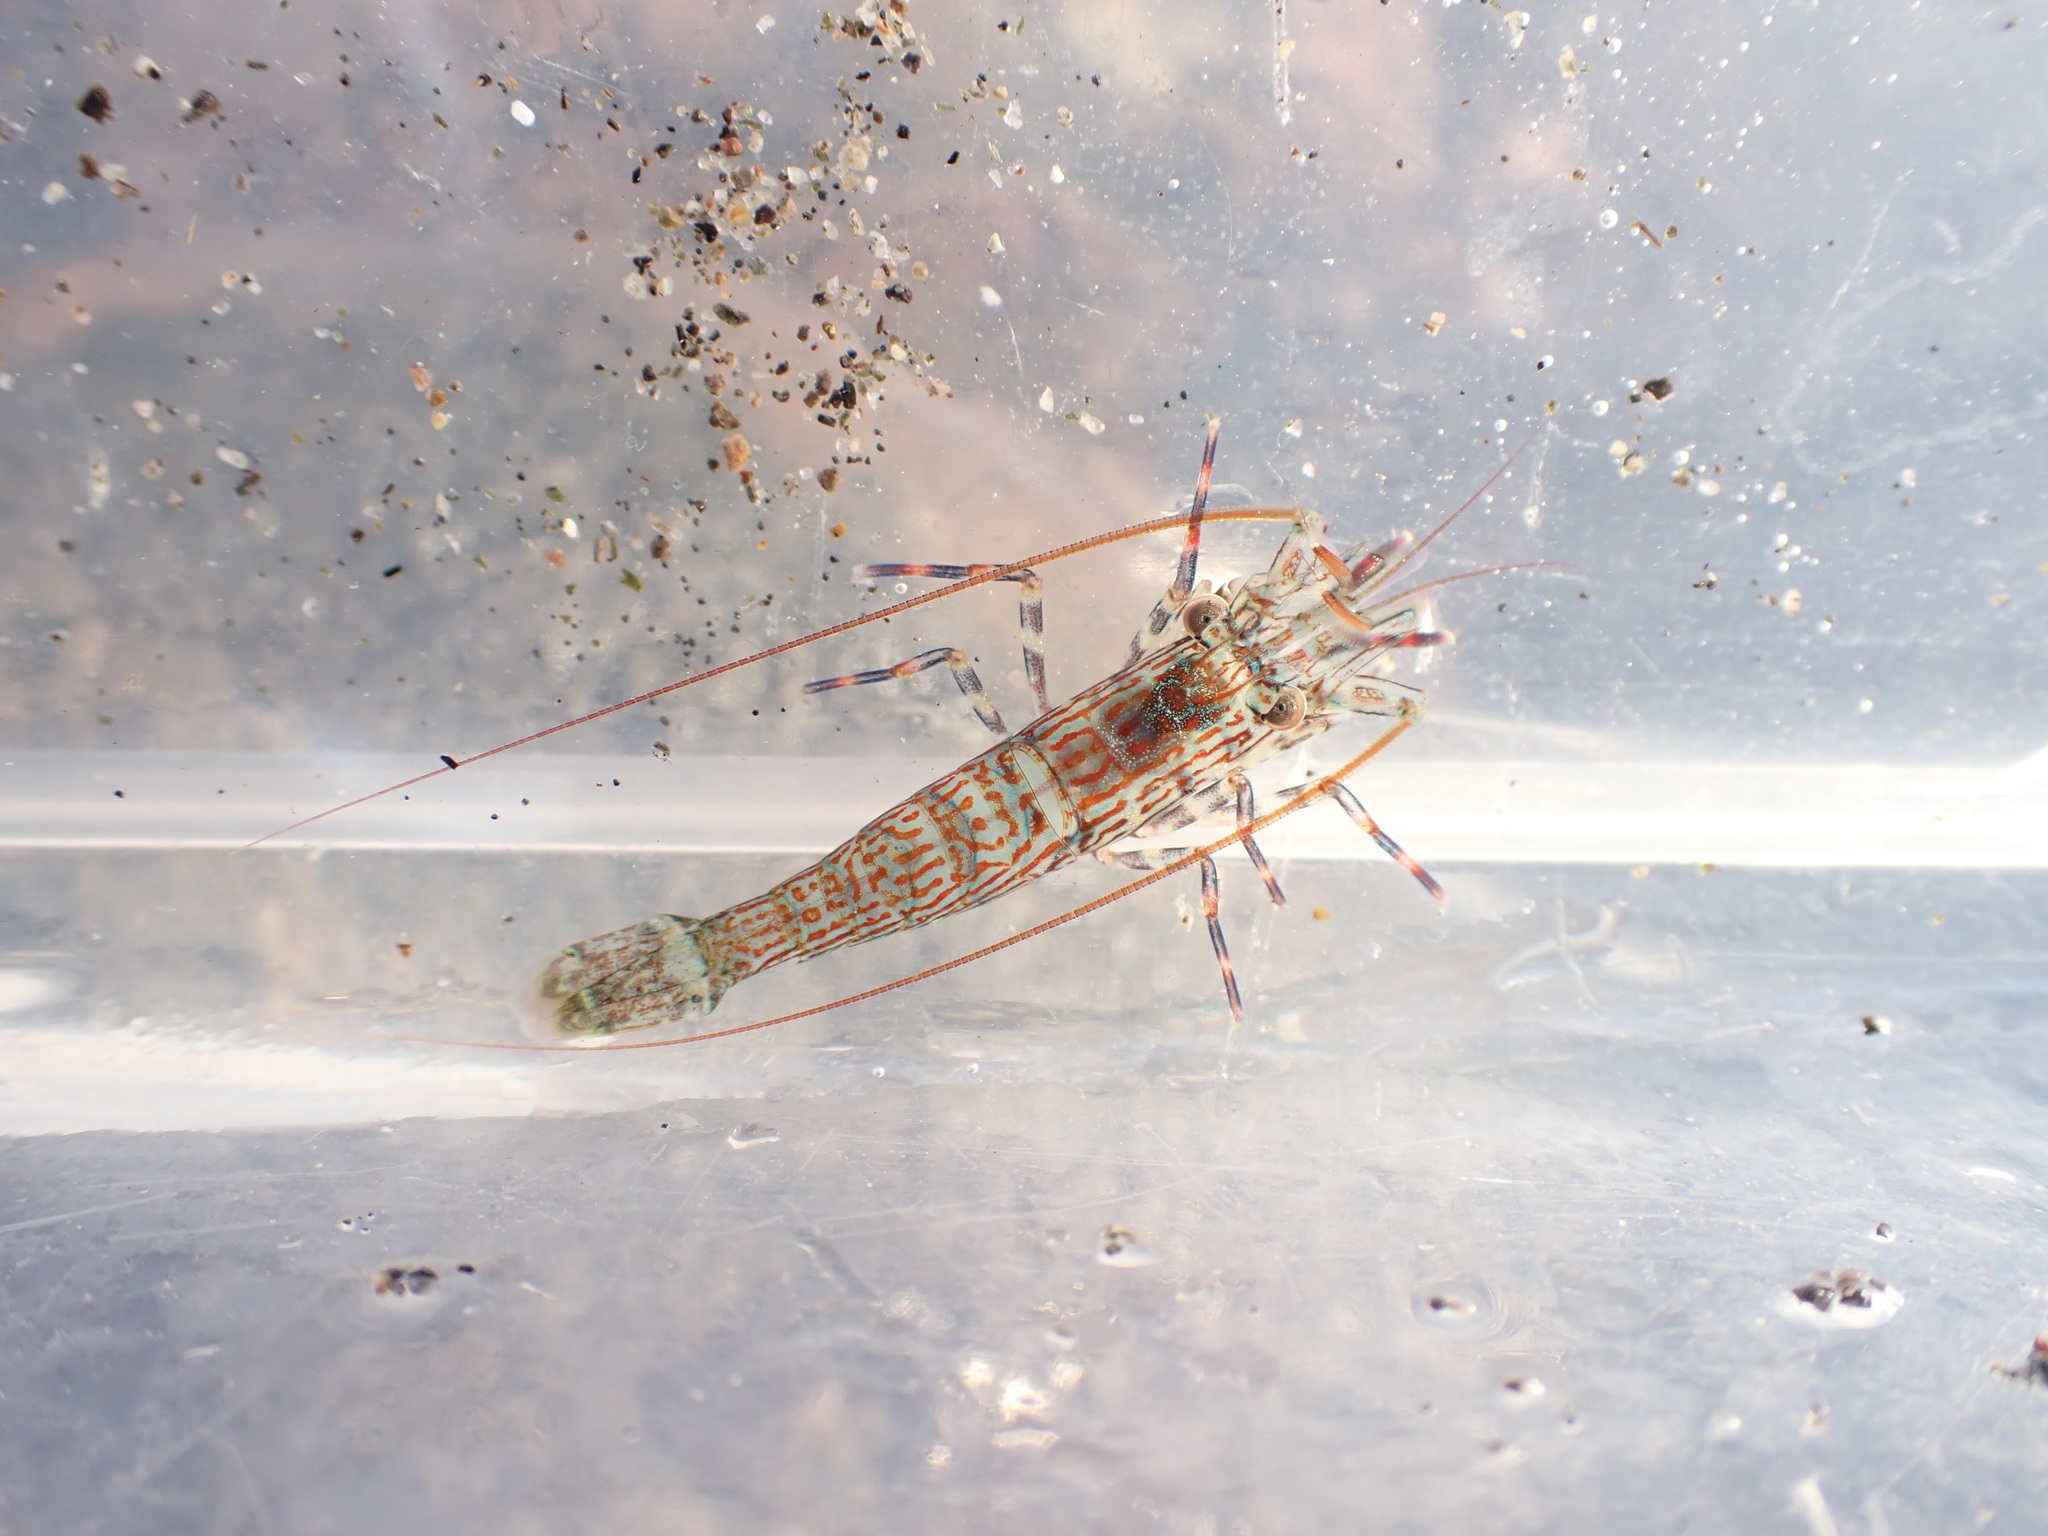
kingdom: Animalia
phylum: Arthropoda
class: Malacostraca
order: Decapoda
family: Hippolytidae
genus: Alope
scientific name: Alope spinifrons
